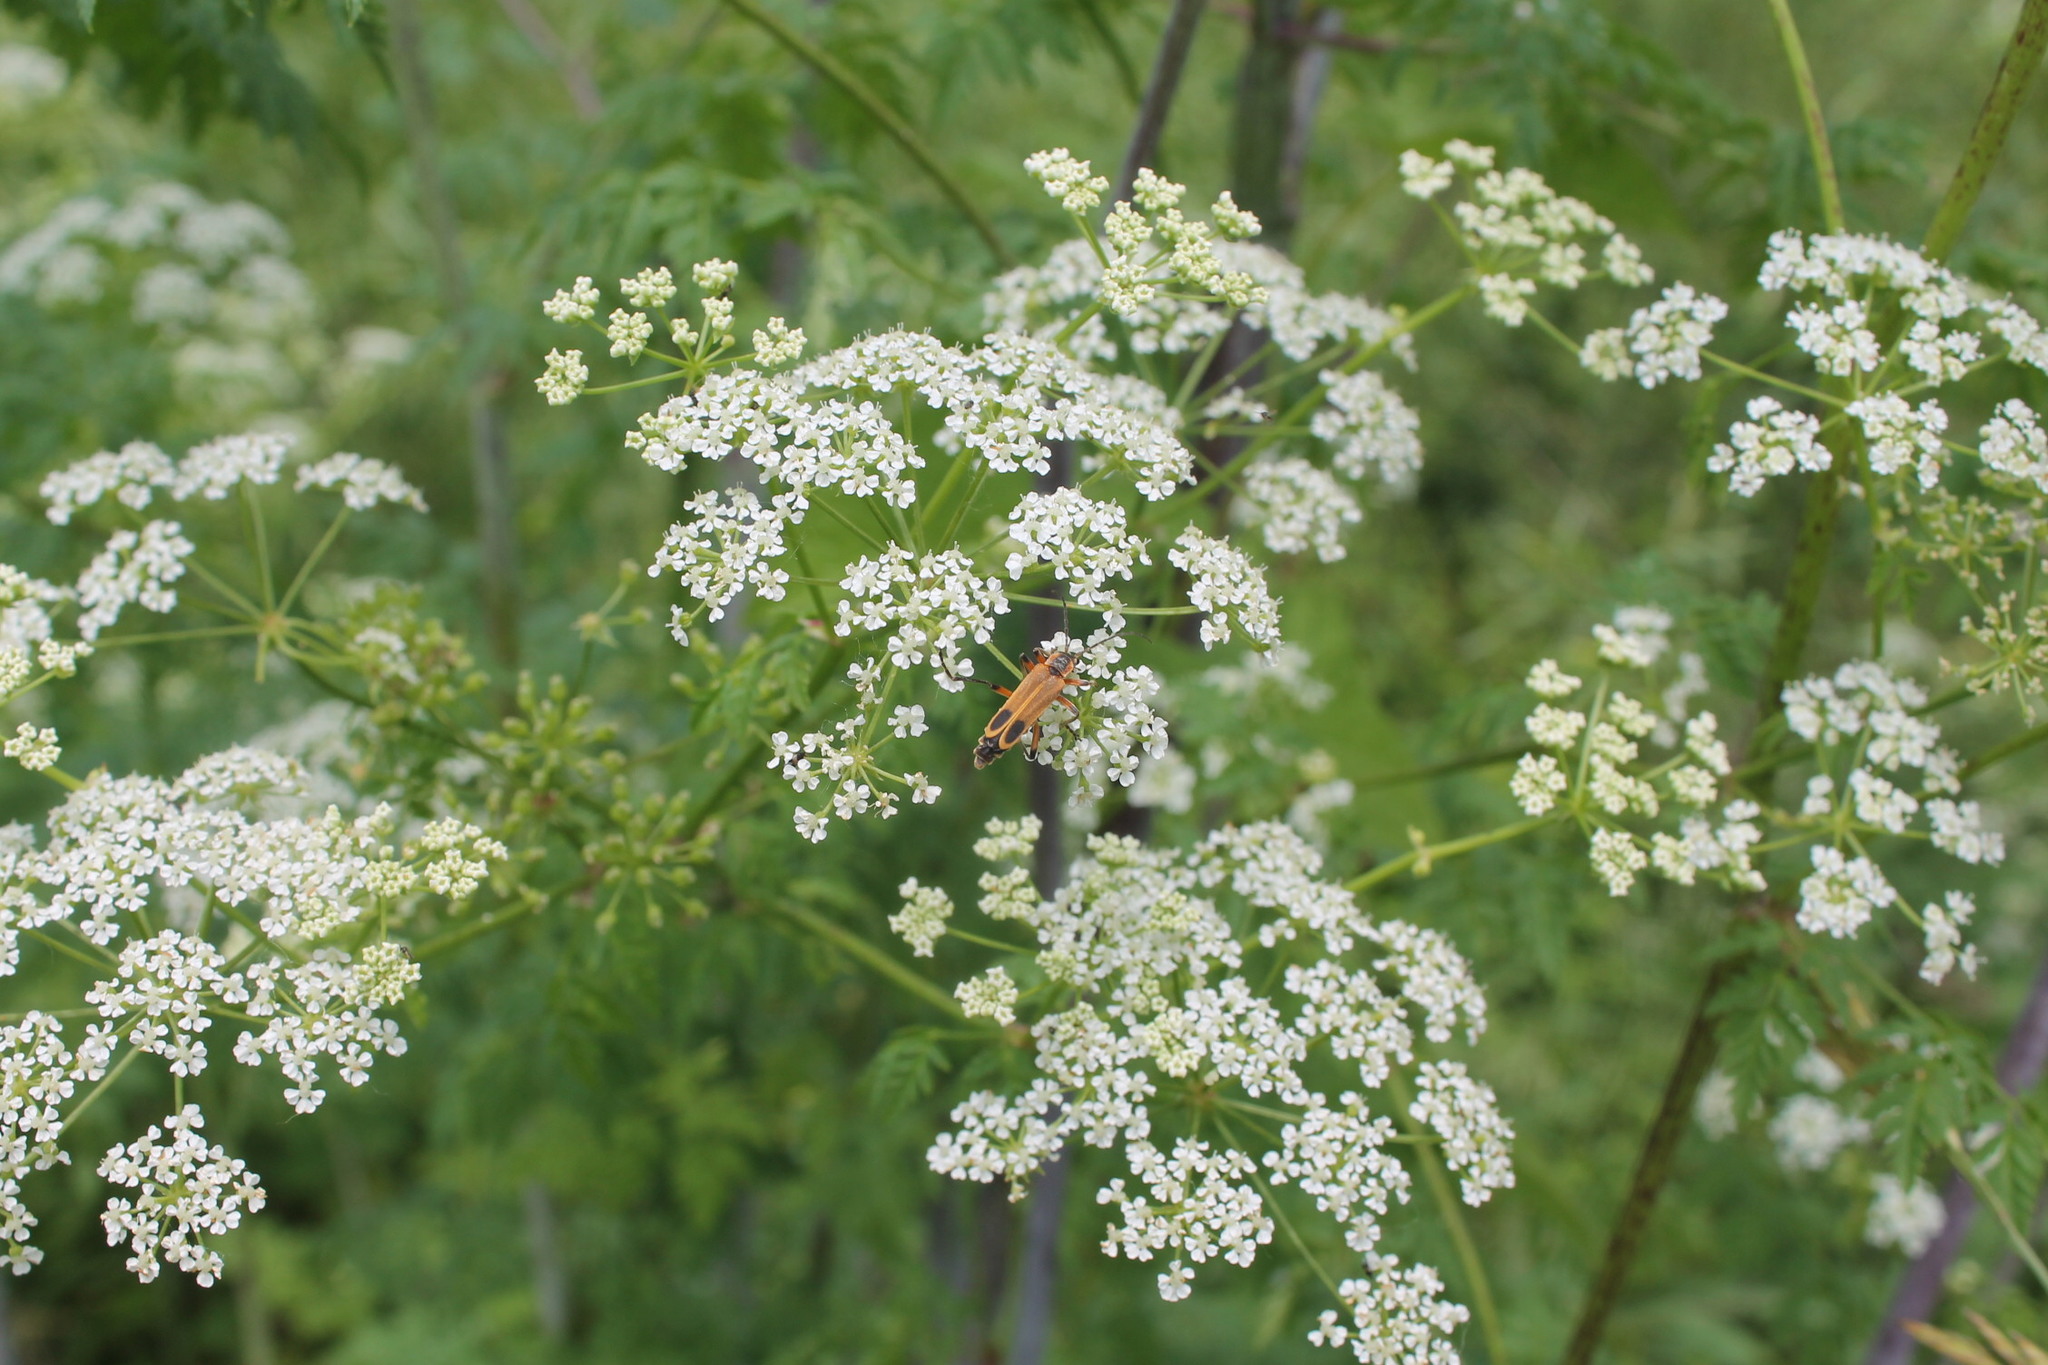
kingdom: Animalia
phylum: Arthropoda
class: Insecta
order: Coleoptera
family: Cantharidae
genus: Chauliognathus
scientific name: Chauliognathus marginatus
